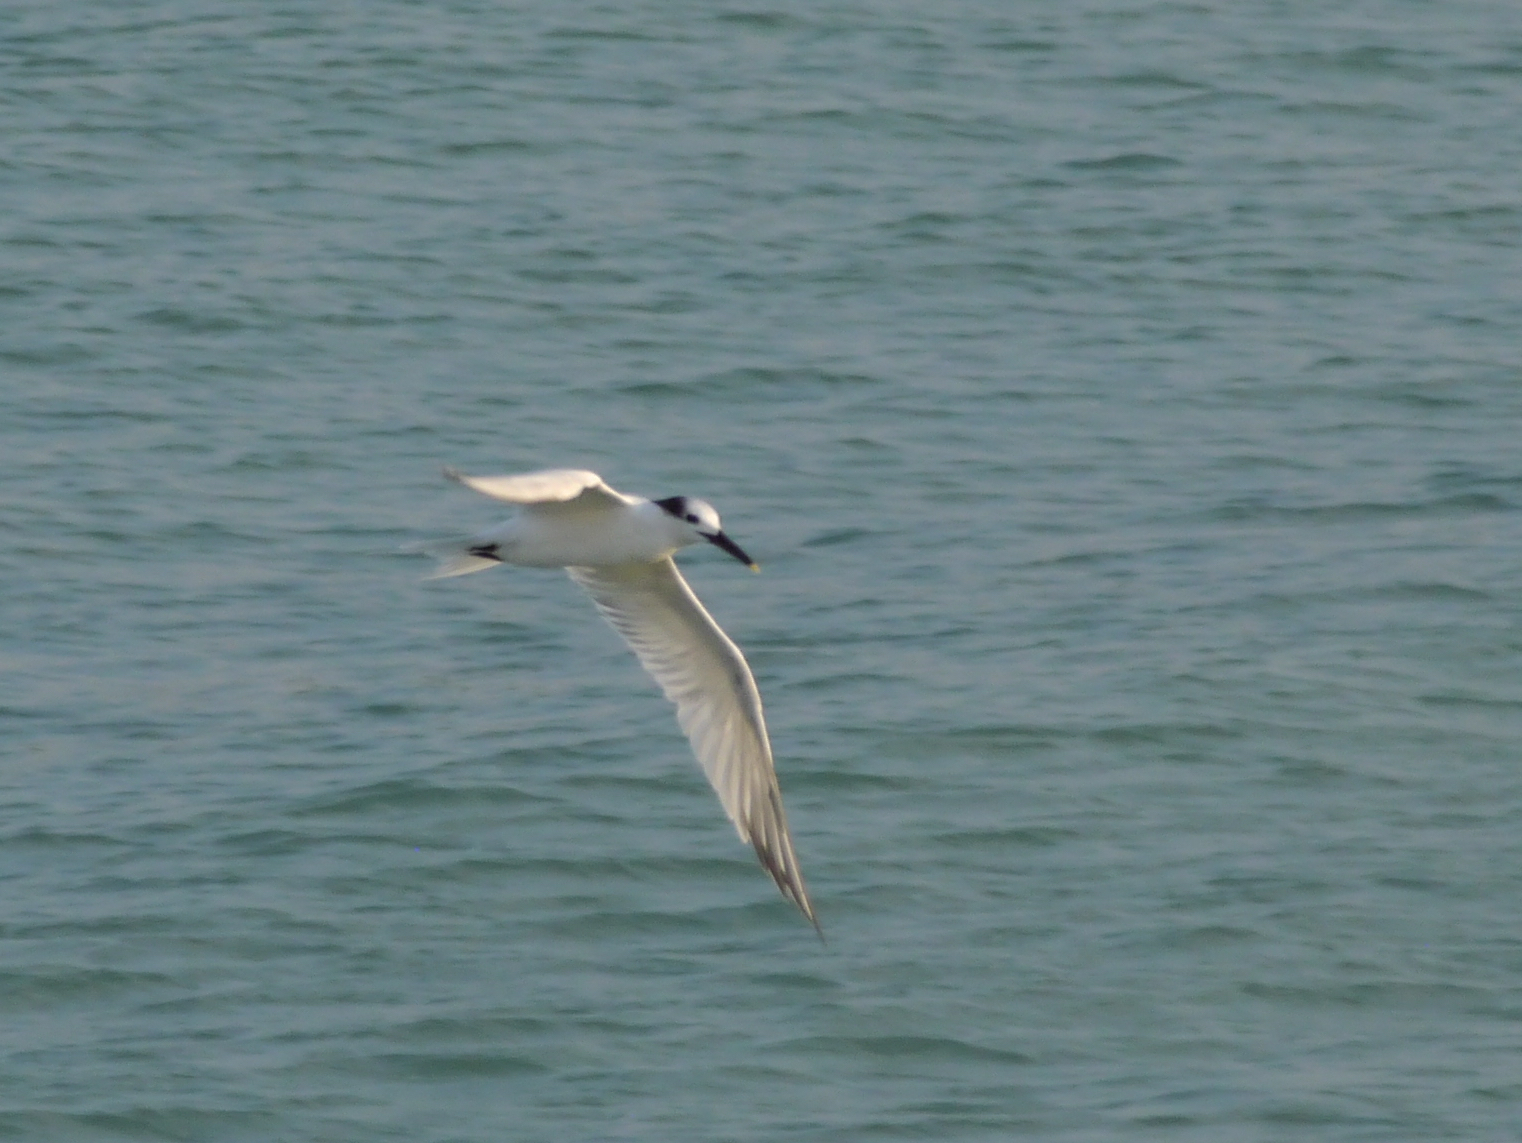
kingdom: Animalia
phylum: Chordata
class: Aves
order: Charadriiformes
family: Laridae
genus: Thalasseus
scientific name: Thalasseus sandvicensis
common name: Sandwich tern
